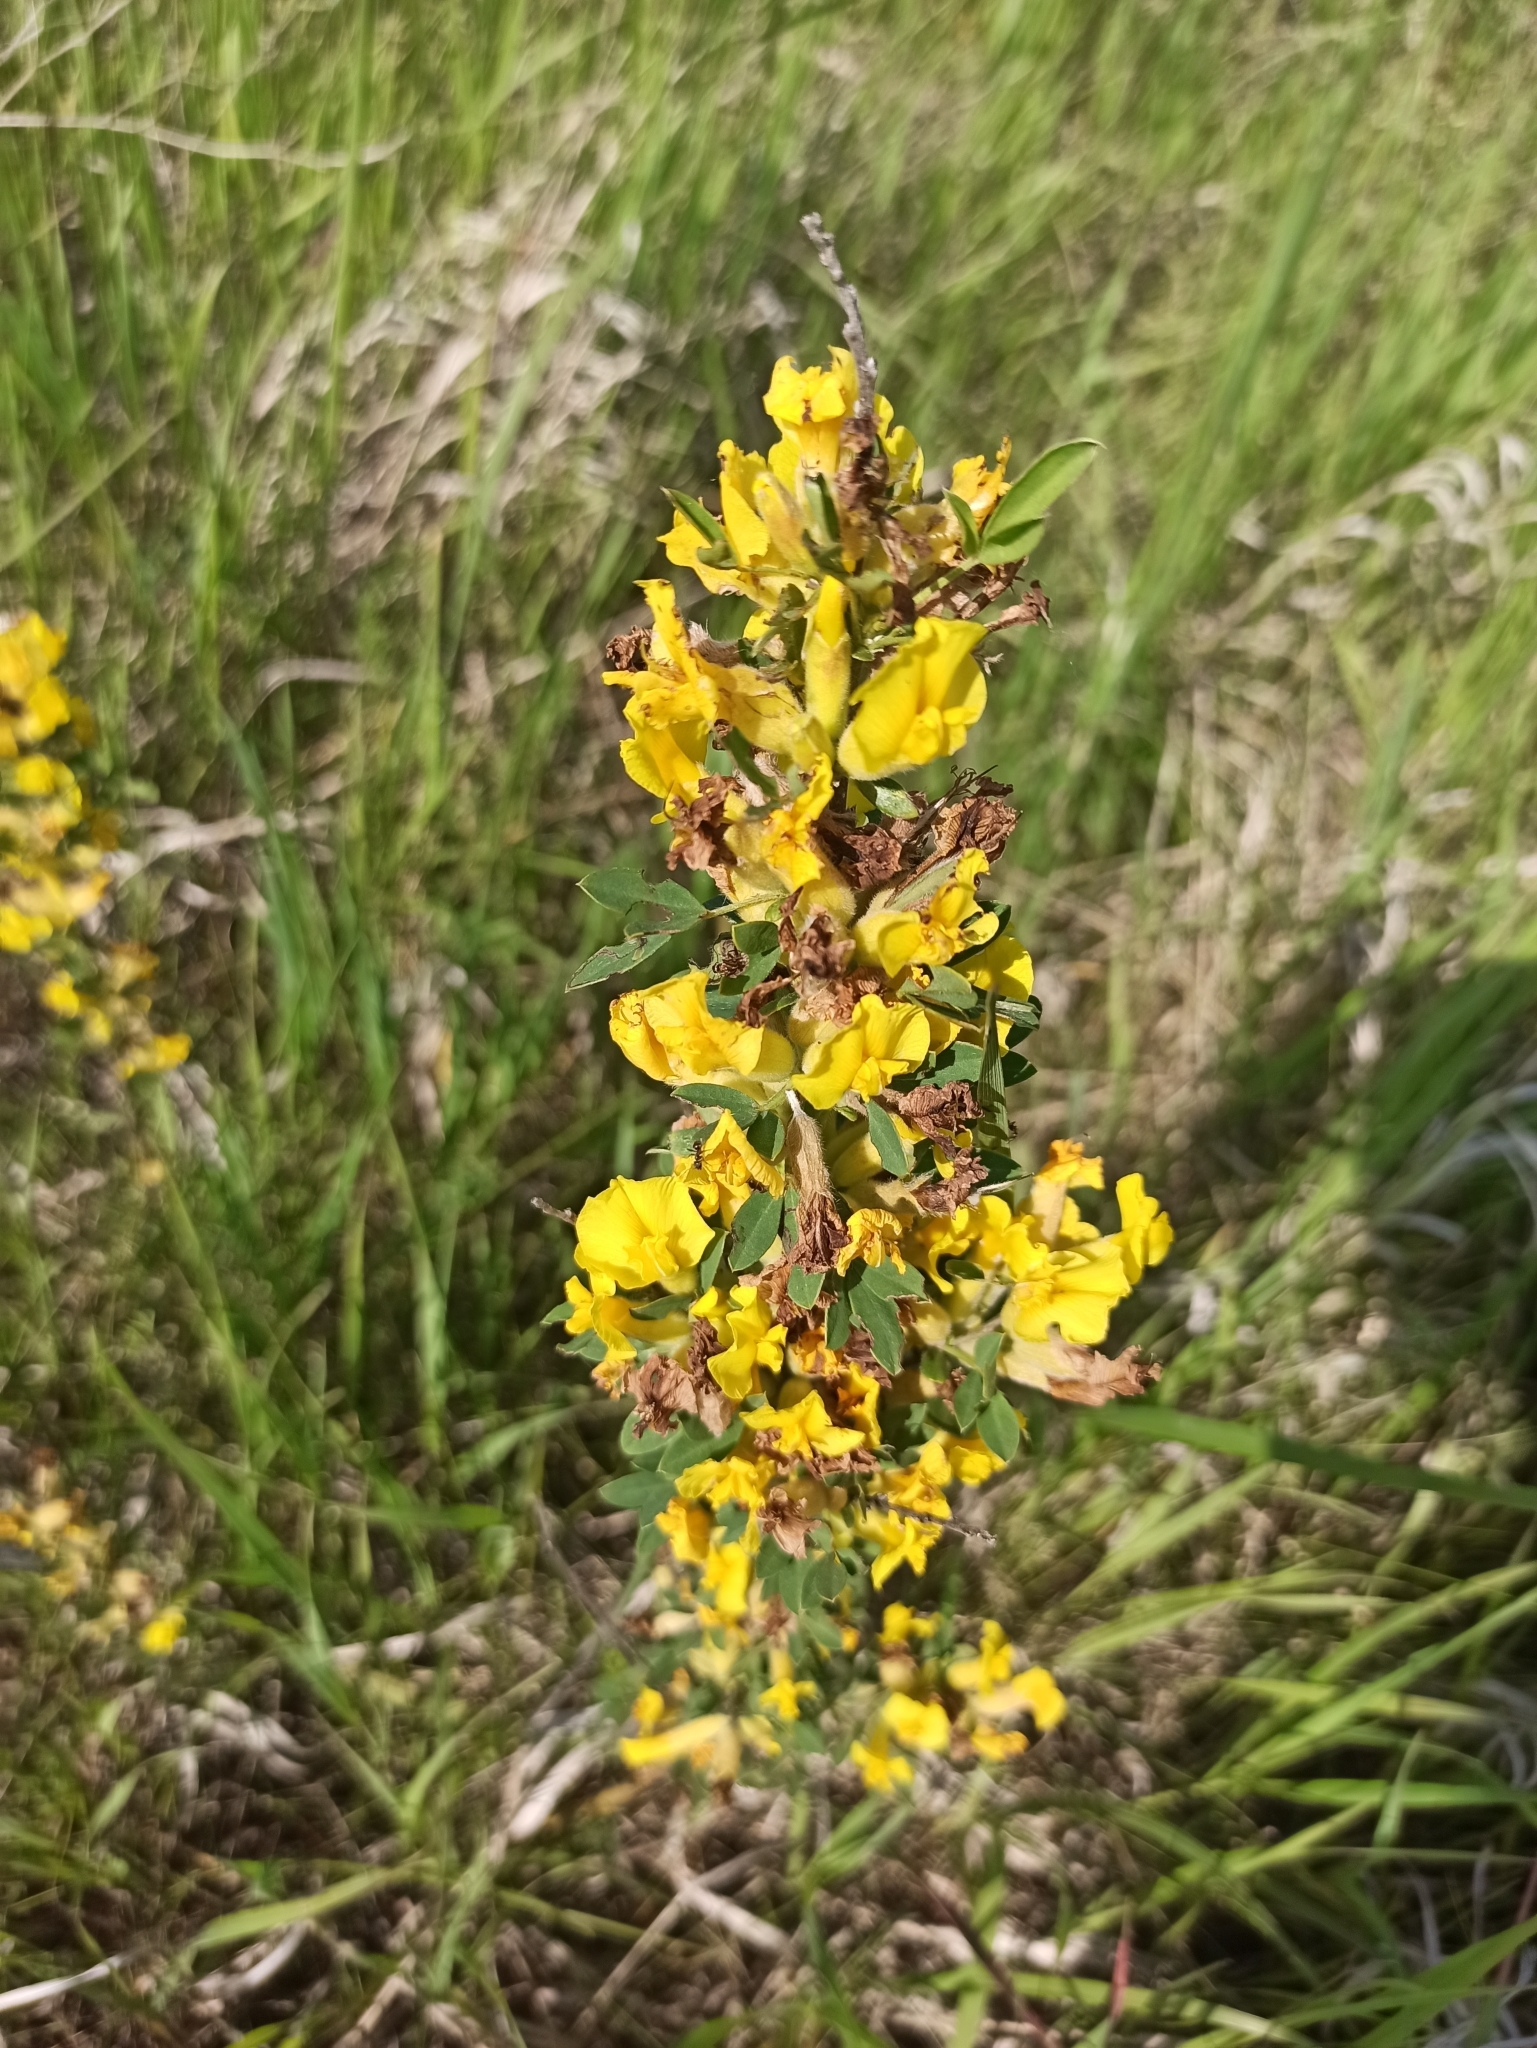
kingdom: Plantae
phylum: Tracheophyta
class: Magnoliopsida
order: Fabales
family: Fabaceae
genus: Chamaecytisus
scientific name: Chamaecytisus ruthenicus
